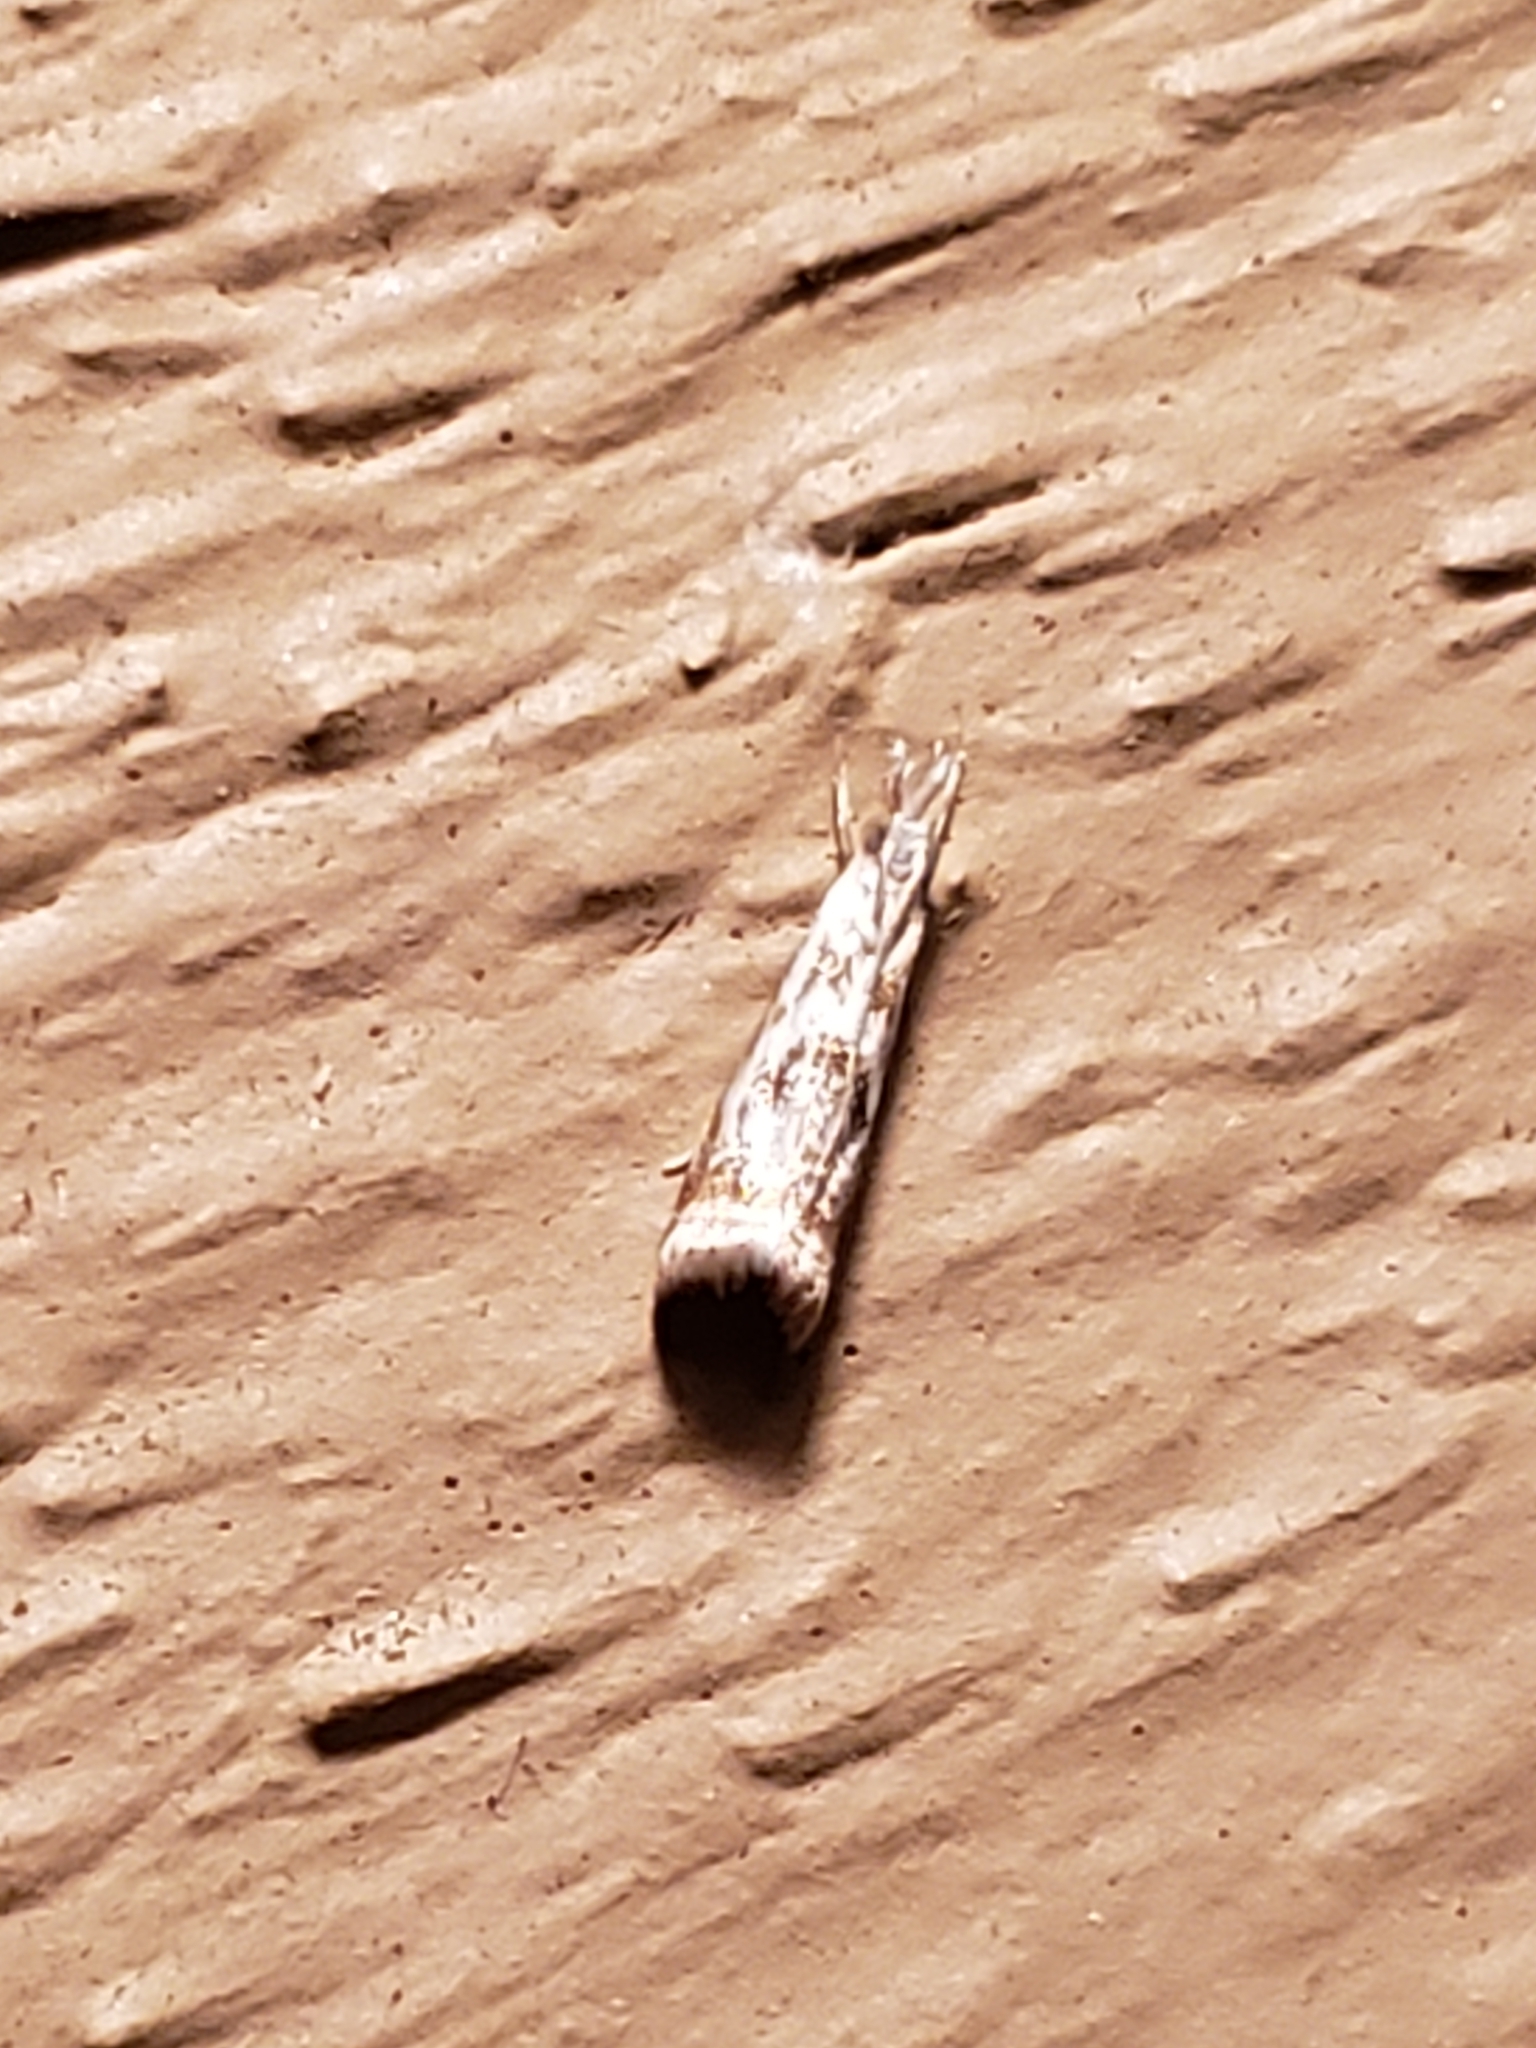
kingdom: Animalia
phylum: Arthropoda
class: Insecta
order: Lepidoptera
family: Crambidae
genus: Microcrambus
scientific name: Microcrambus elegans
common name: Elegant grass-veneer
